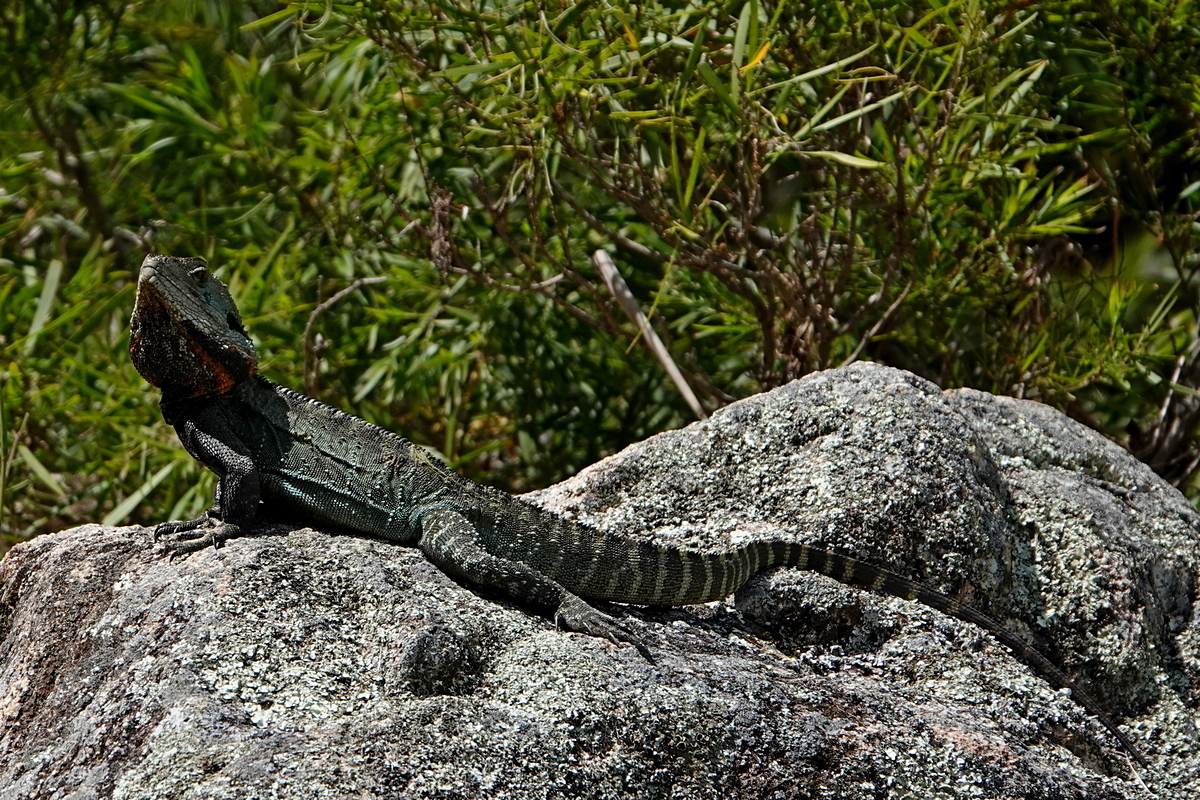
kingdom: Animalia
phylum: Chordata
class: Squamata
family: Agamidae
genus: Intellagama
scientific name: Intellagama lesueurii
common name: Eastern water dragon
